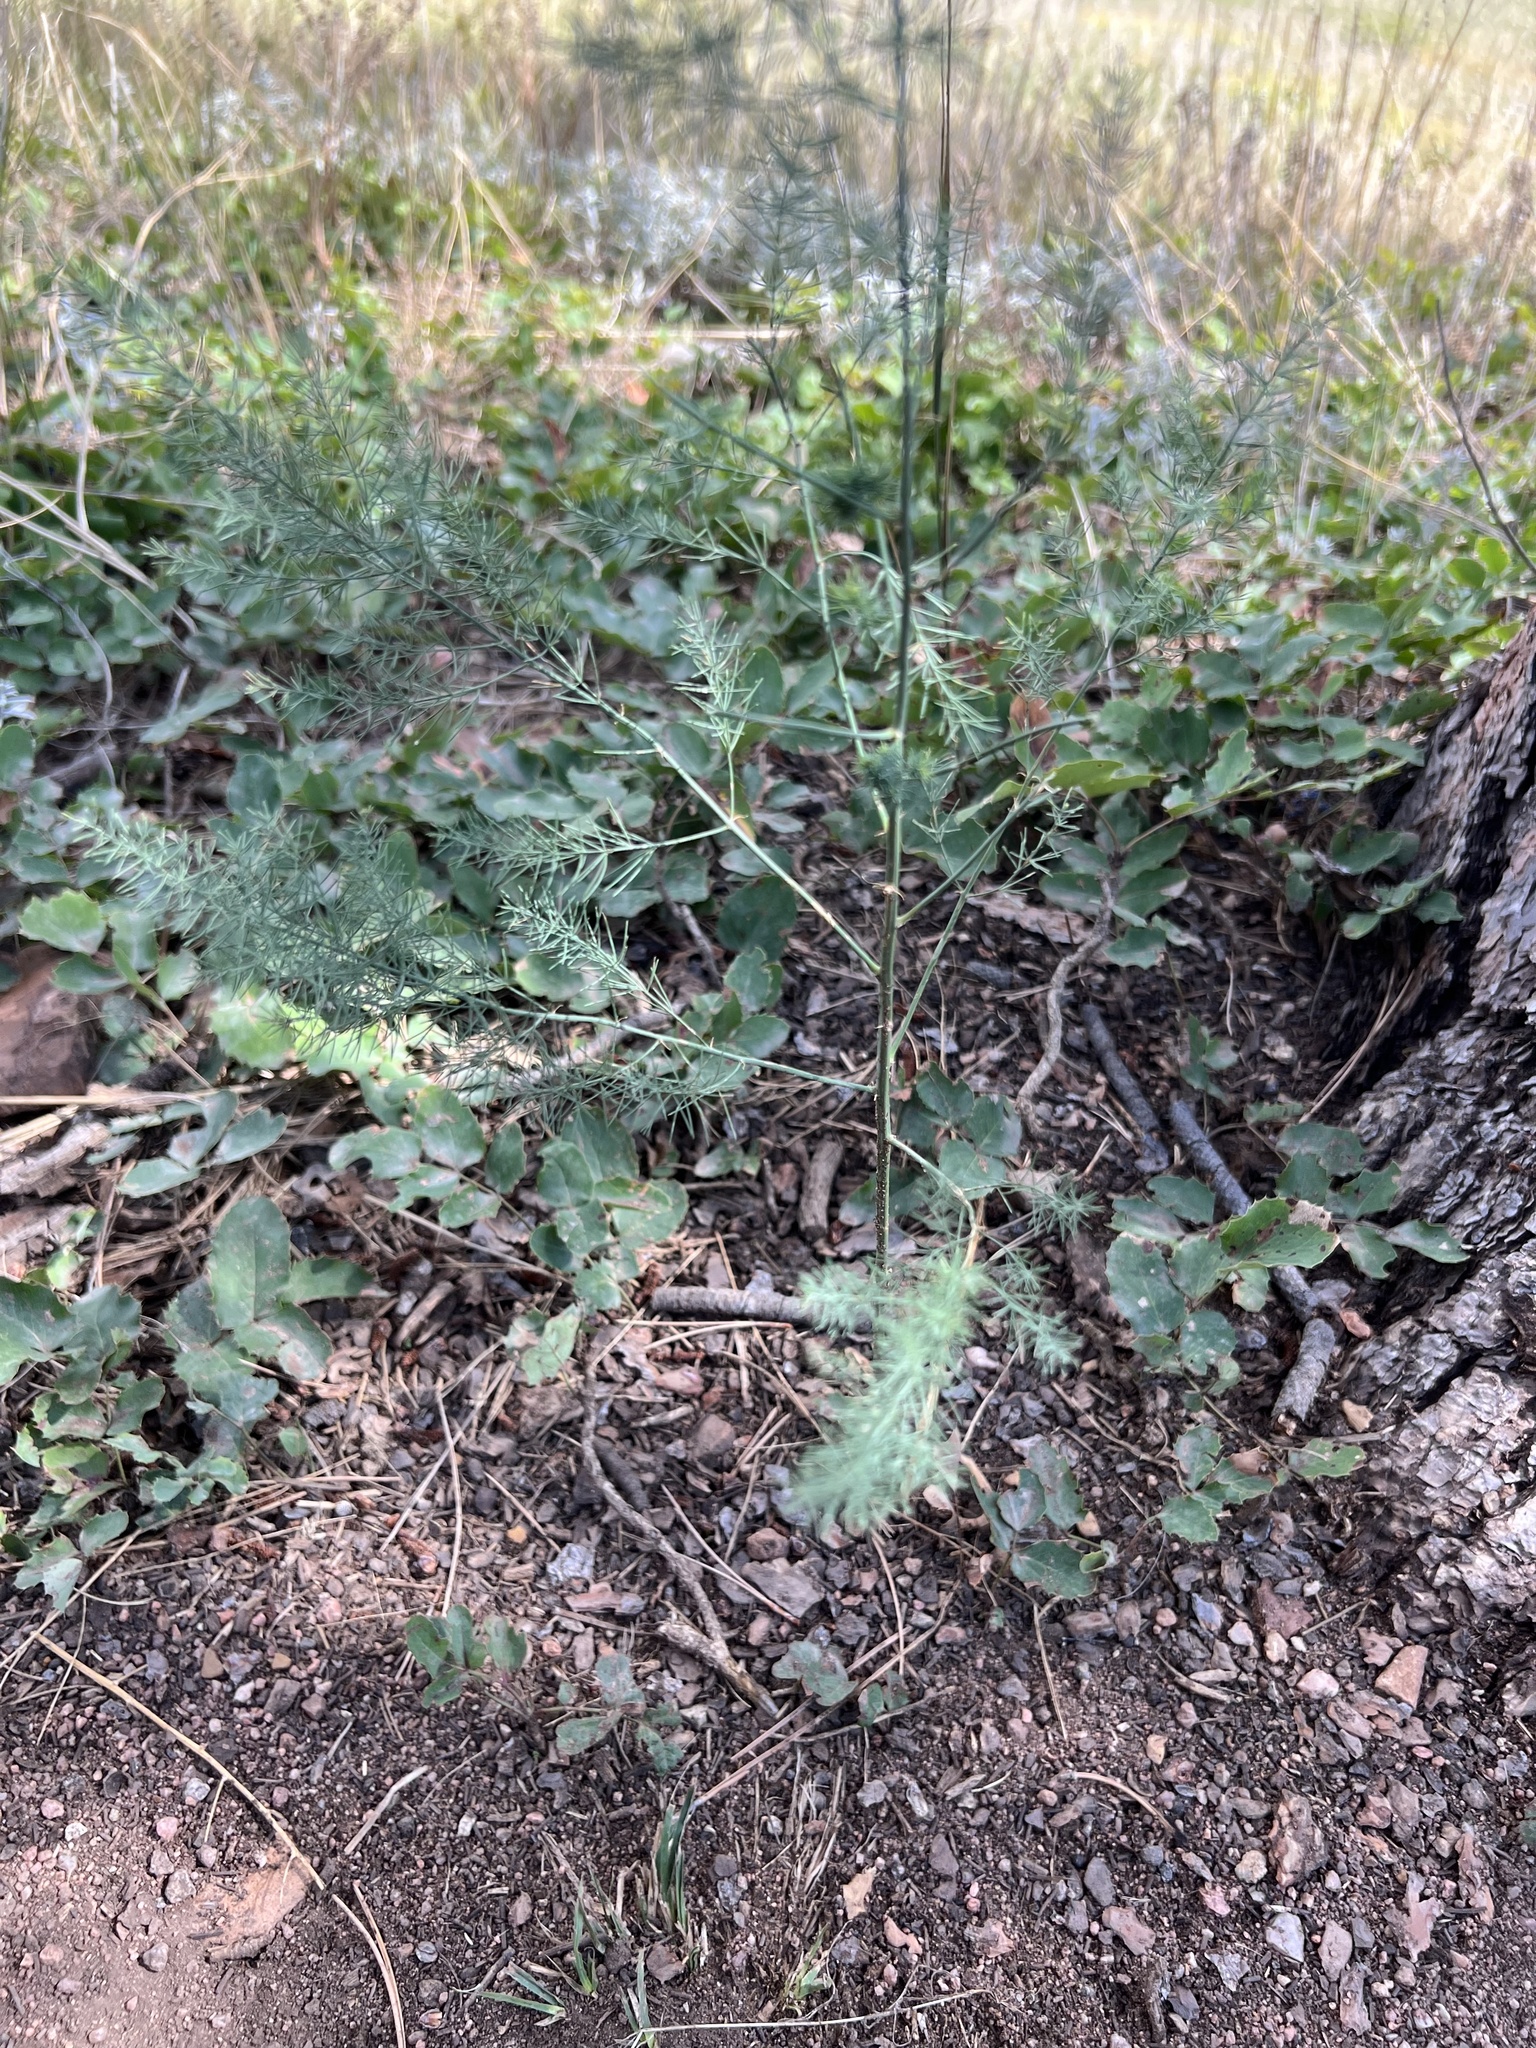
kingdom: Plantae
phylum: Tracheophyta
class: Liliopsida
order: Asparagales
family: Asparagaceae
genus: Asparagus
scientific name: Asparagus officinalis
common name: Garden asparagus
